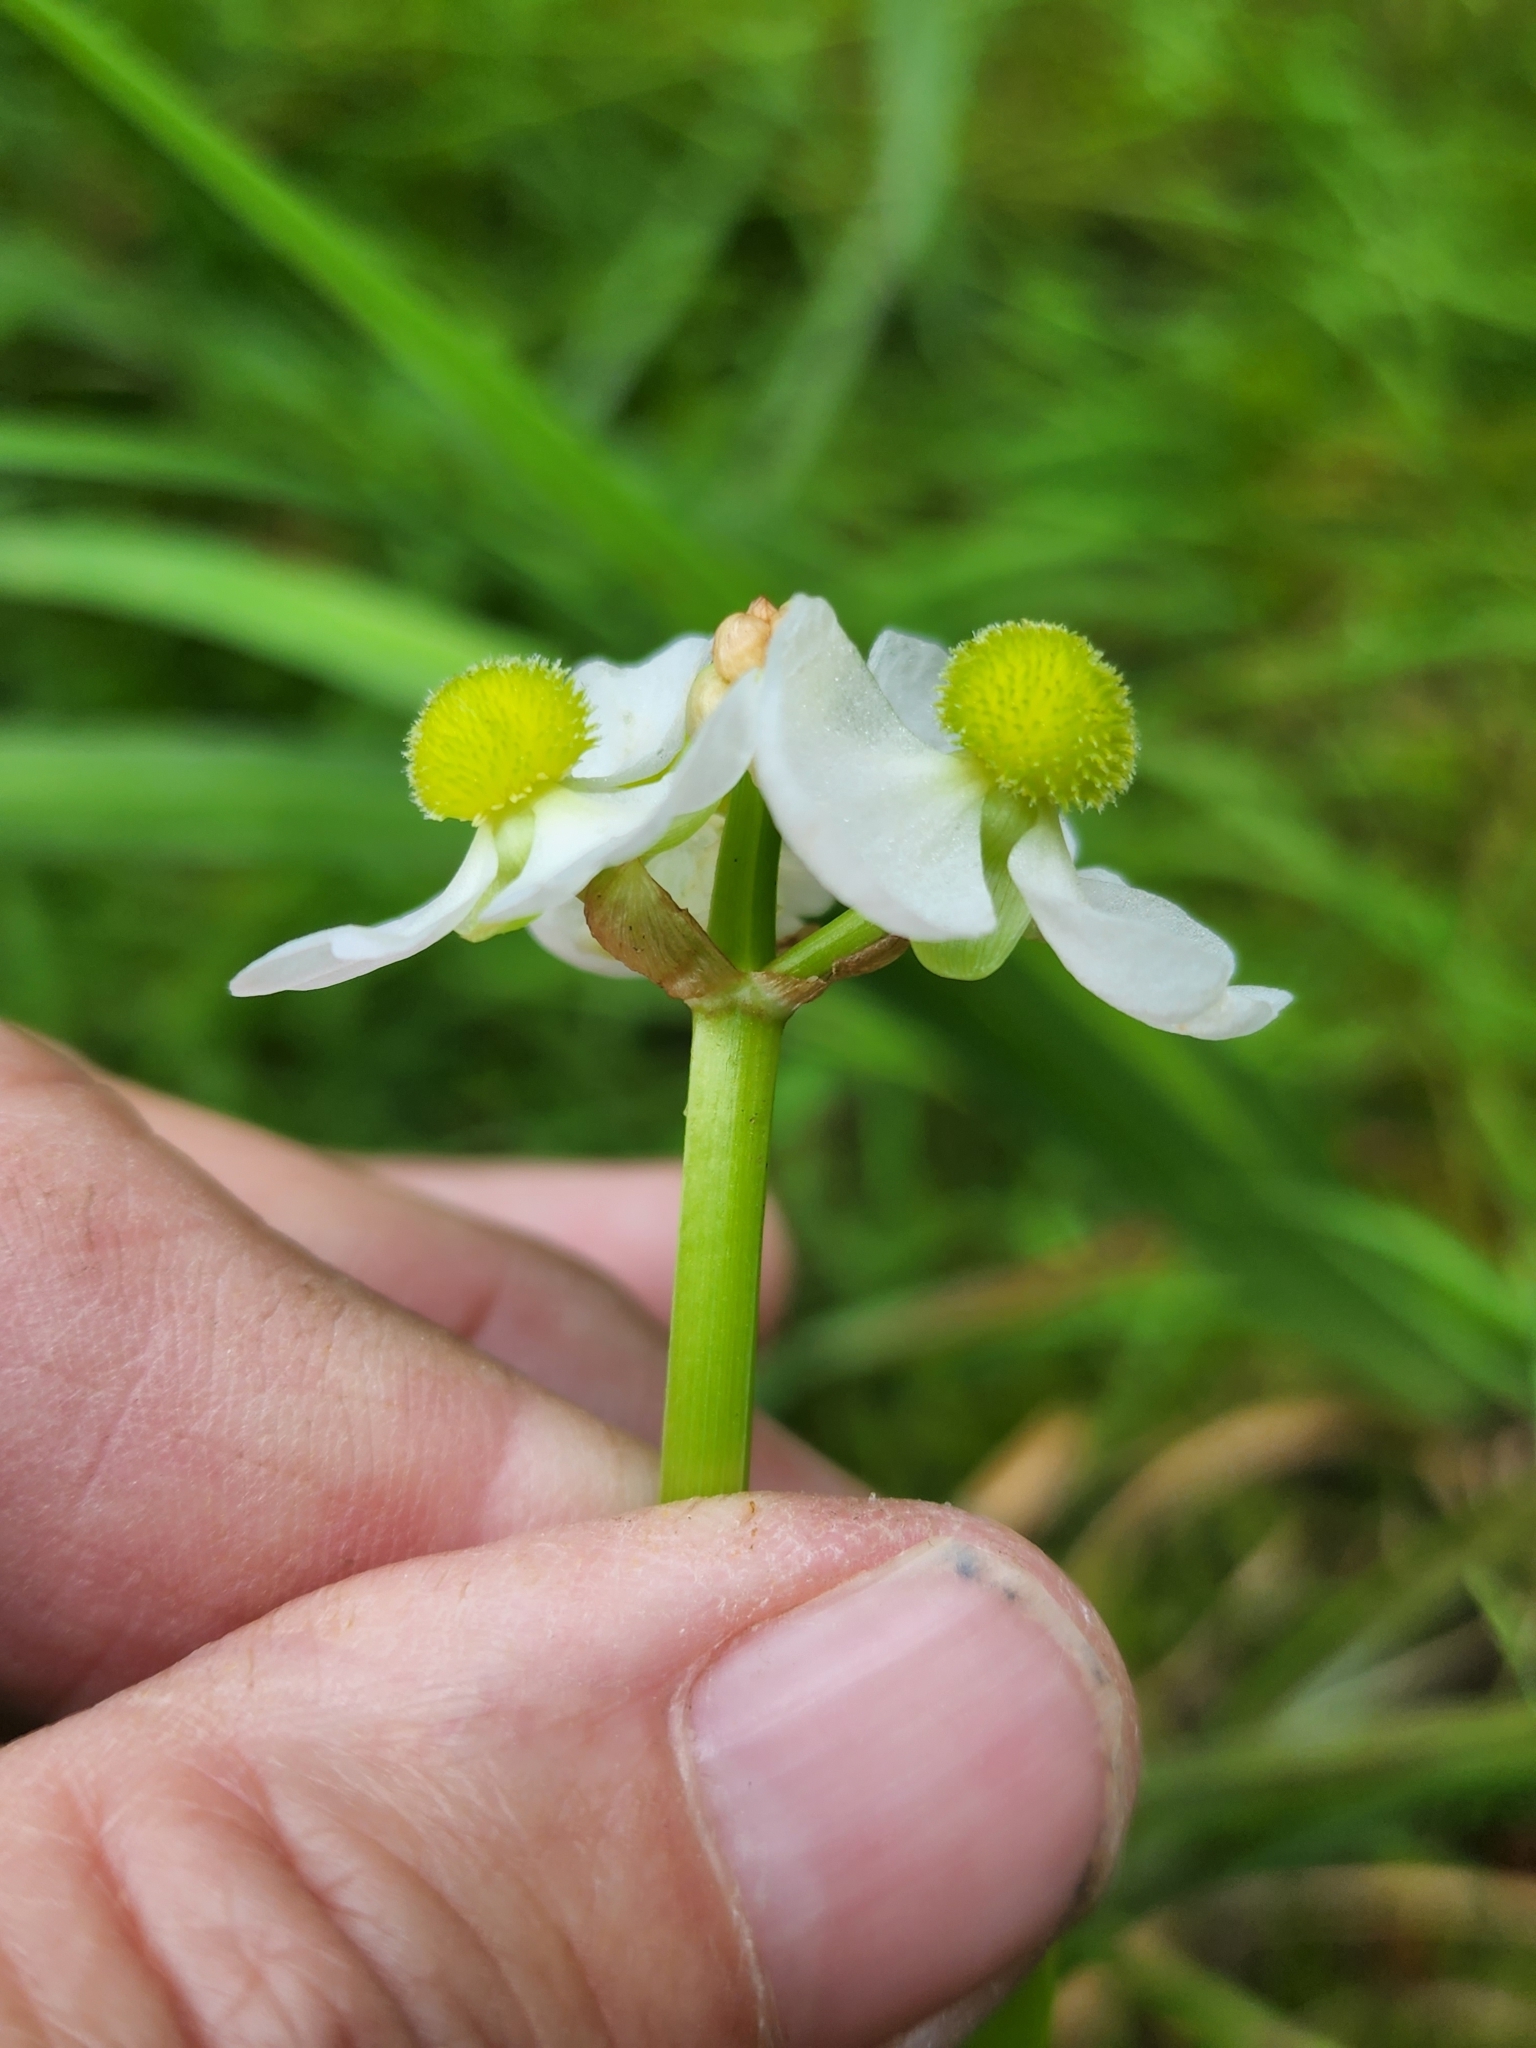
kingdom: Plantae
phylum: Tracheophyta
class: Liliopsida
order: Alismatales
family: Alismataceae
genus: Sagittaria
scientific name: Sagittaria latifolia
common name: Duck-potato
